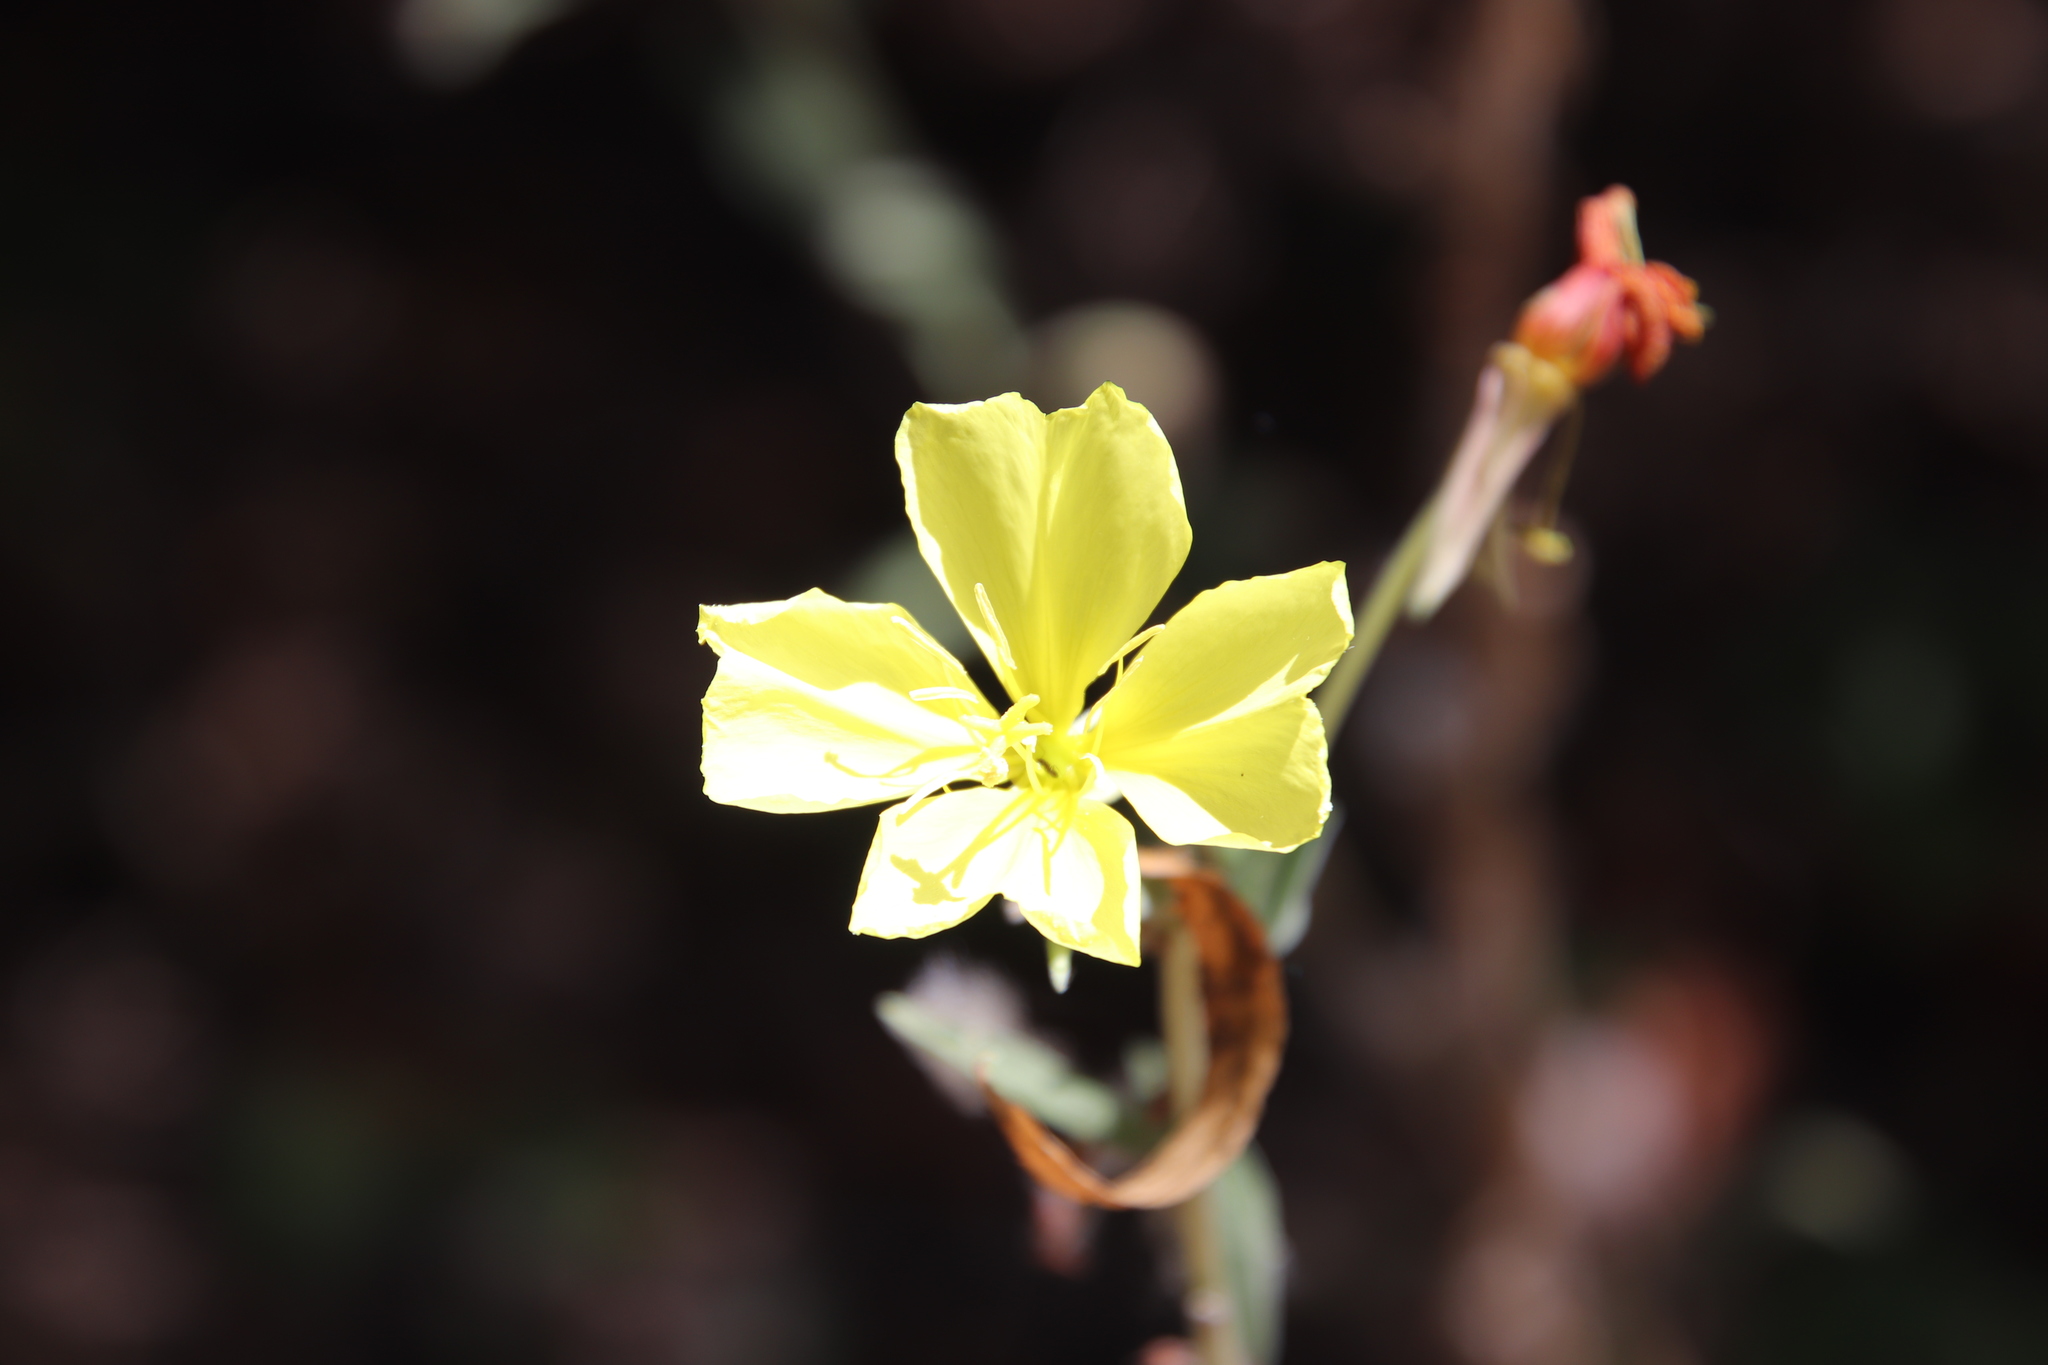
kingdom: Plantae
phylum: Tracheophyta
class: Magnoliopsida
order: Myrtales
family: Onagraceae
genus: Oenothera
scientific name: Oenothera elata
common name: Hooker's evening-primrose
